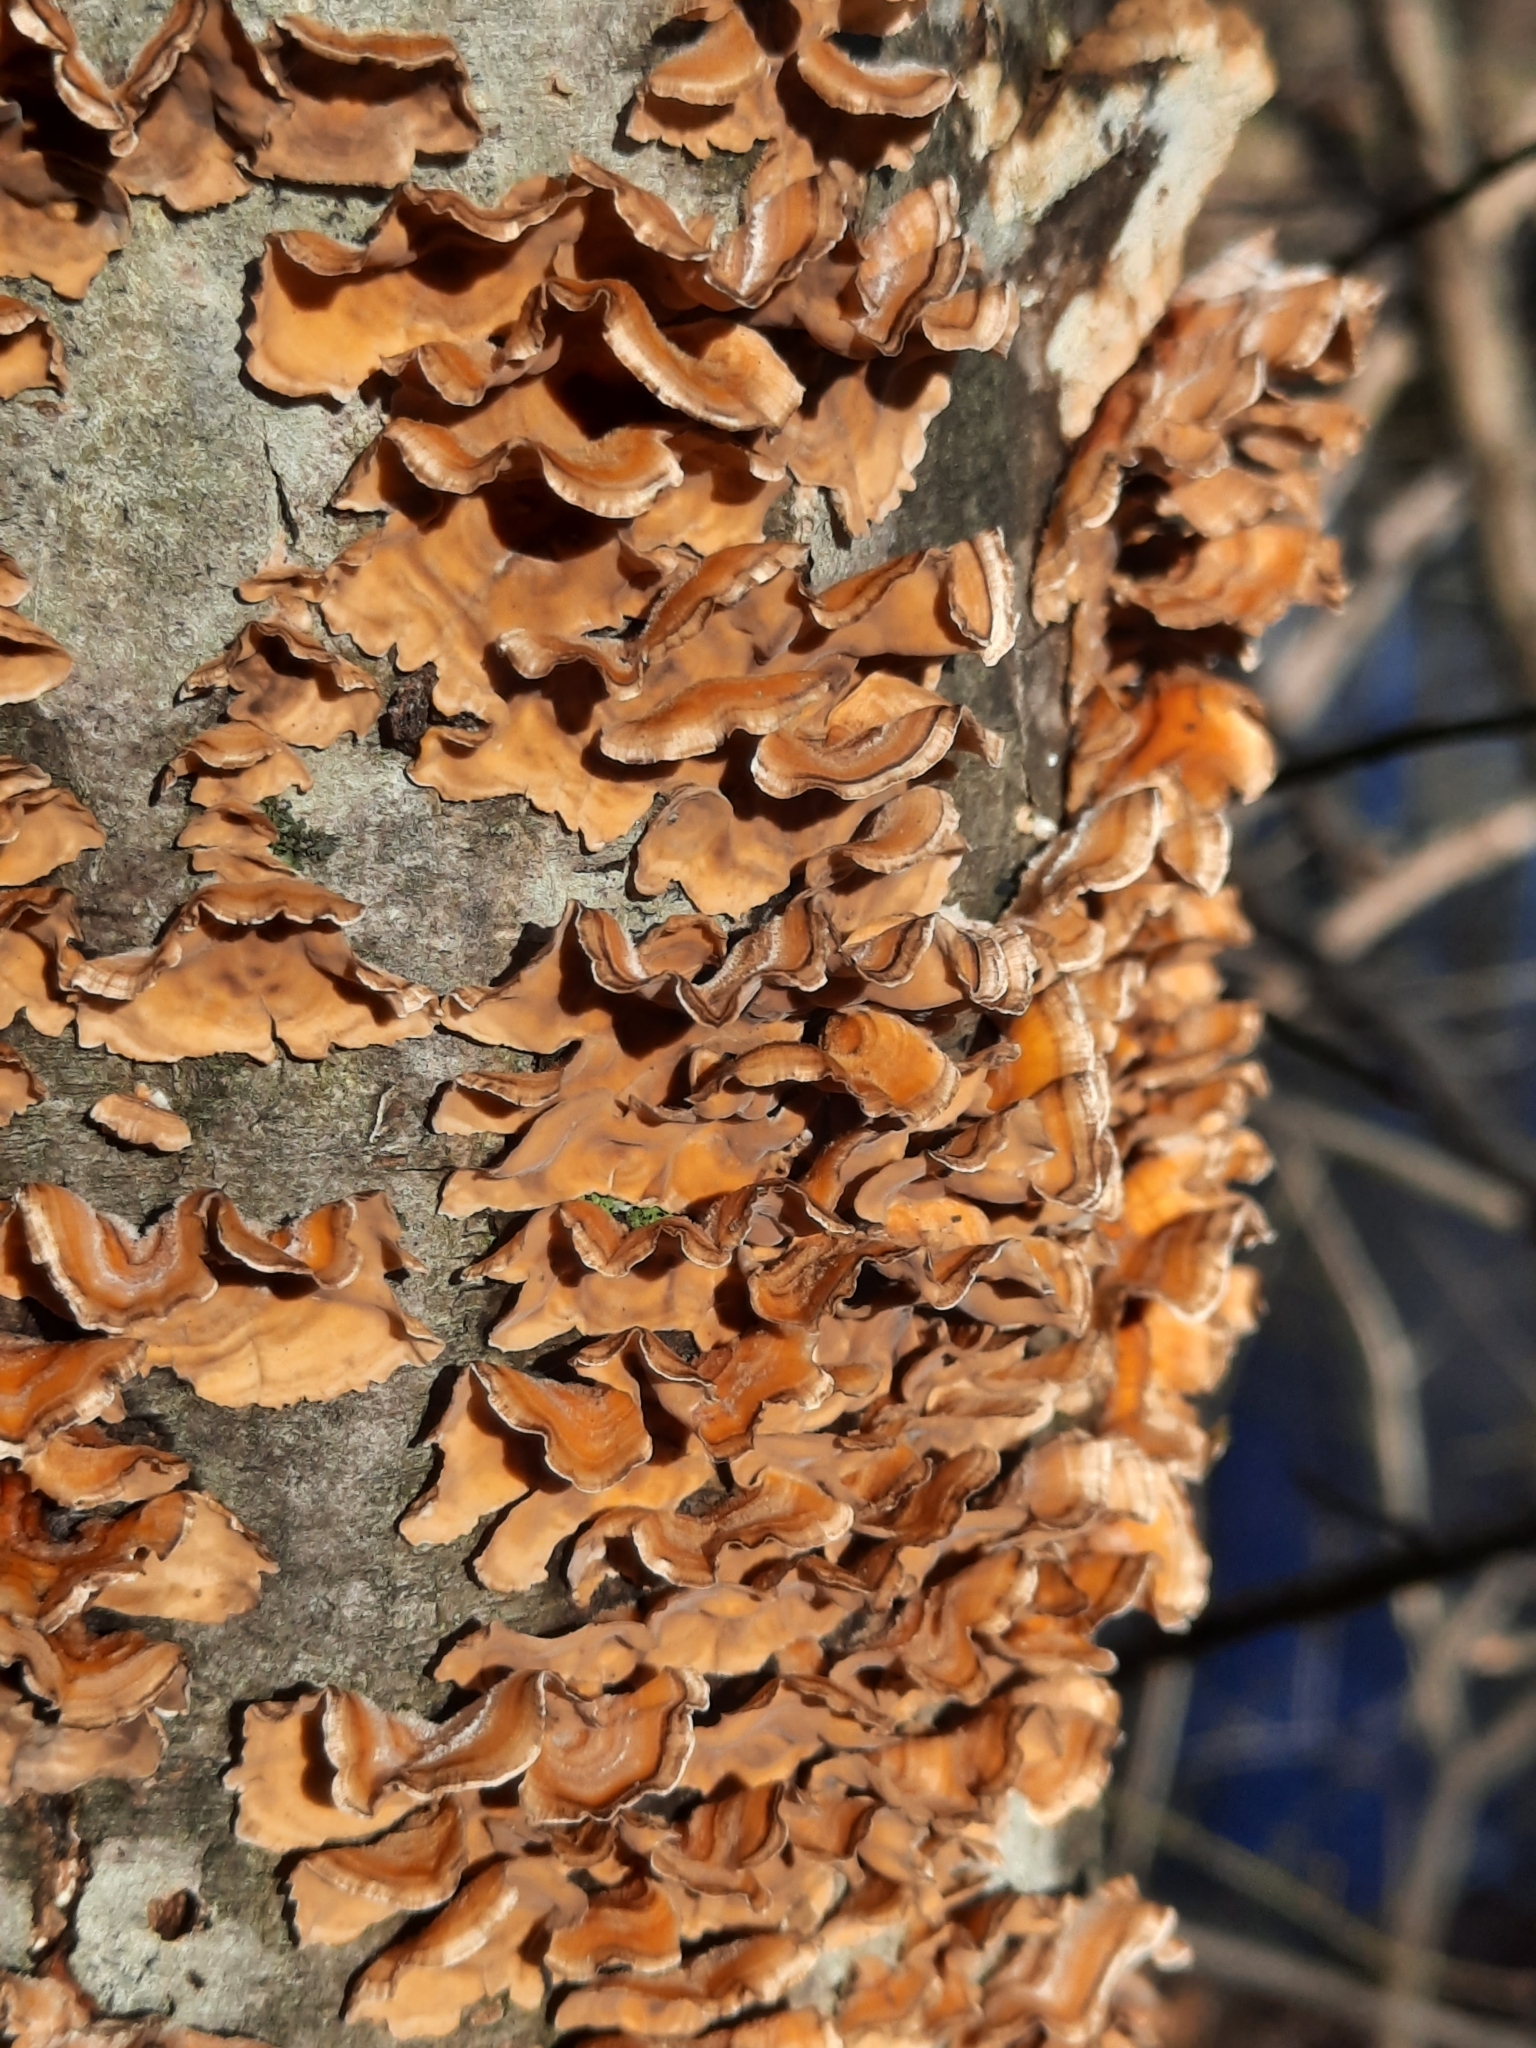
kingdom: Fungi
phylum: Basidiomycota
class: Agaricomycetes
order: Russulales
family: Stereaceae
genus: Stereum
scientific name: Stereum complicatum
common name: Crowded parchment
